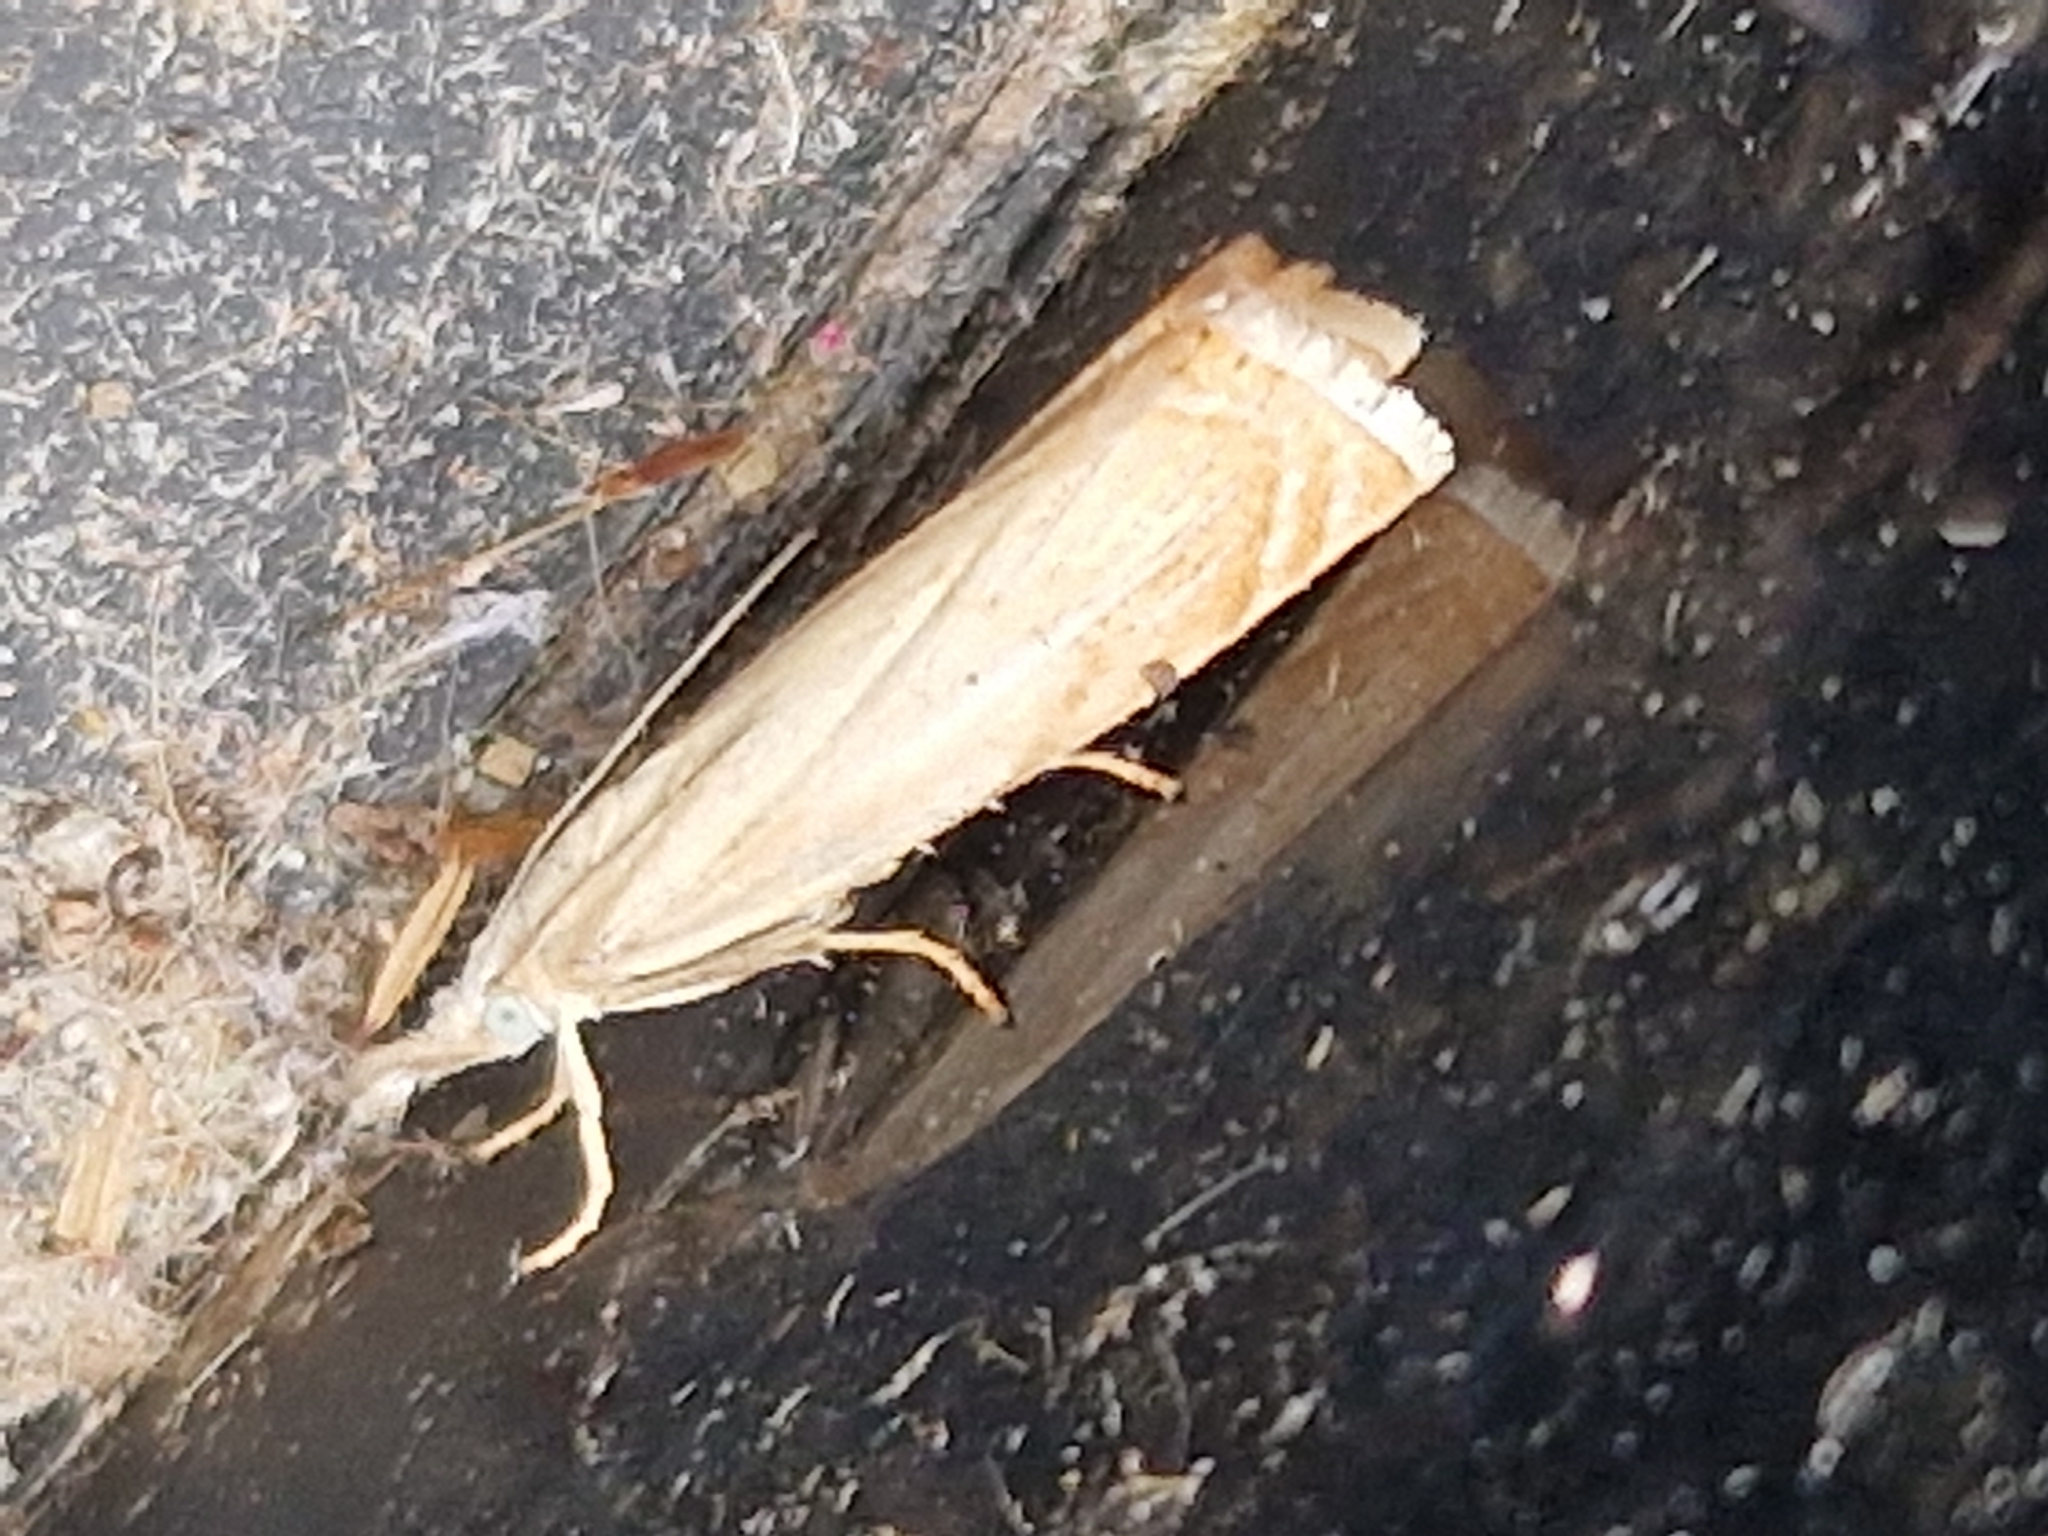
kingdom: Animalia
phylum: Arthropoda
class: Insecta
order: Lepidoptera
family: Crambidae
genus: Chrysoteuchia
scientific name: Chrysoteuchia culmella
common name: Garden grass-veneer
